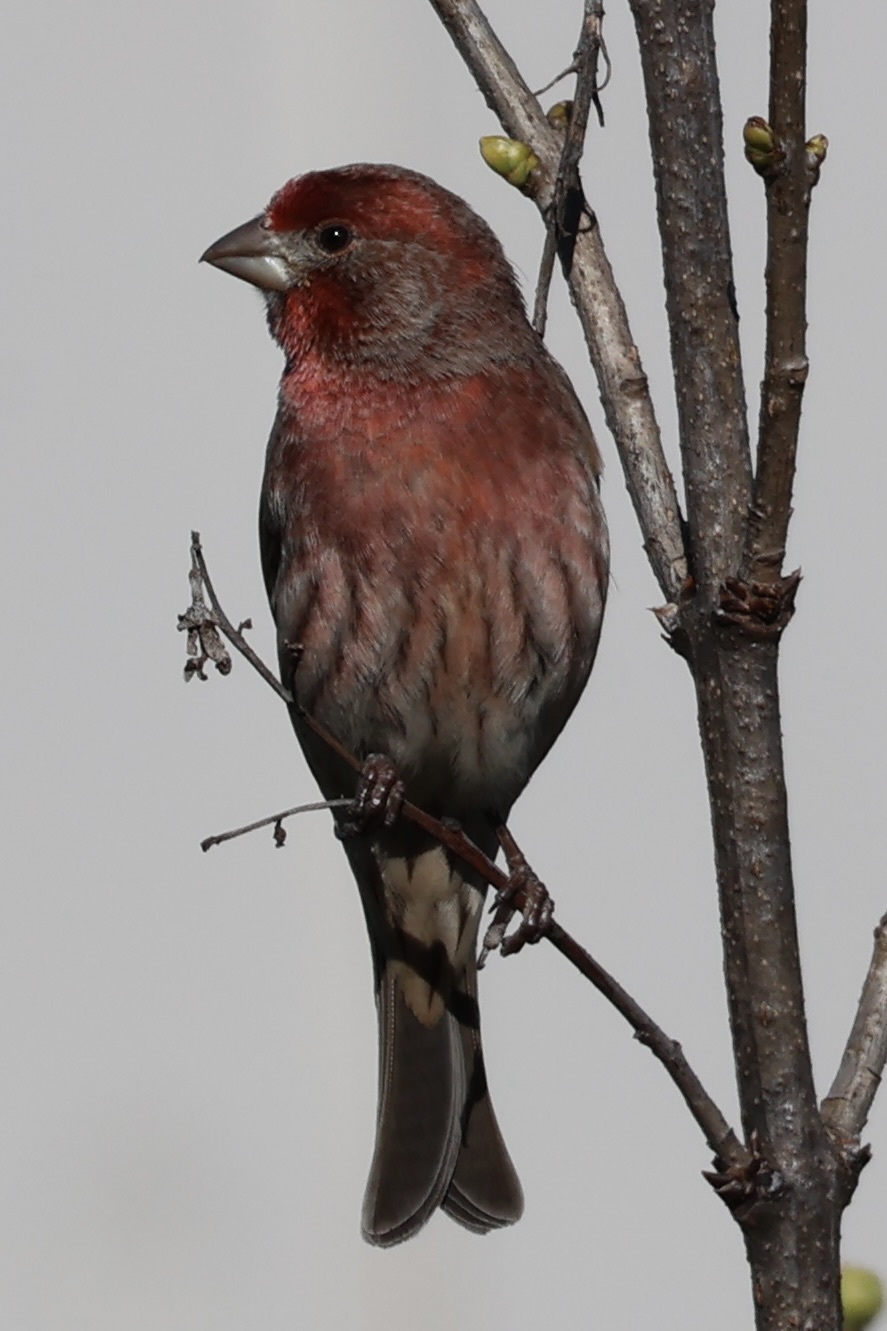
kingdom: Animalia
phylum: Chordata
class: Aves
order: Passeriformes
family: Fringillidae
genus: Haemorhous
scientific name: Haemorhous mexicanus
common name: House finch
